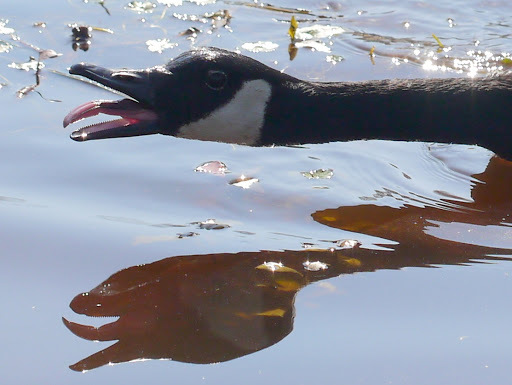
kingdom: Animalia
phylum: Chordata
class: Aves
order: Anseriformes
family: Anatidae
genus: Branta
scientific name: Branta canadensis
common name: Canada goose
